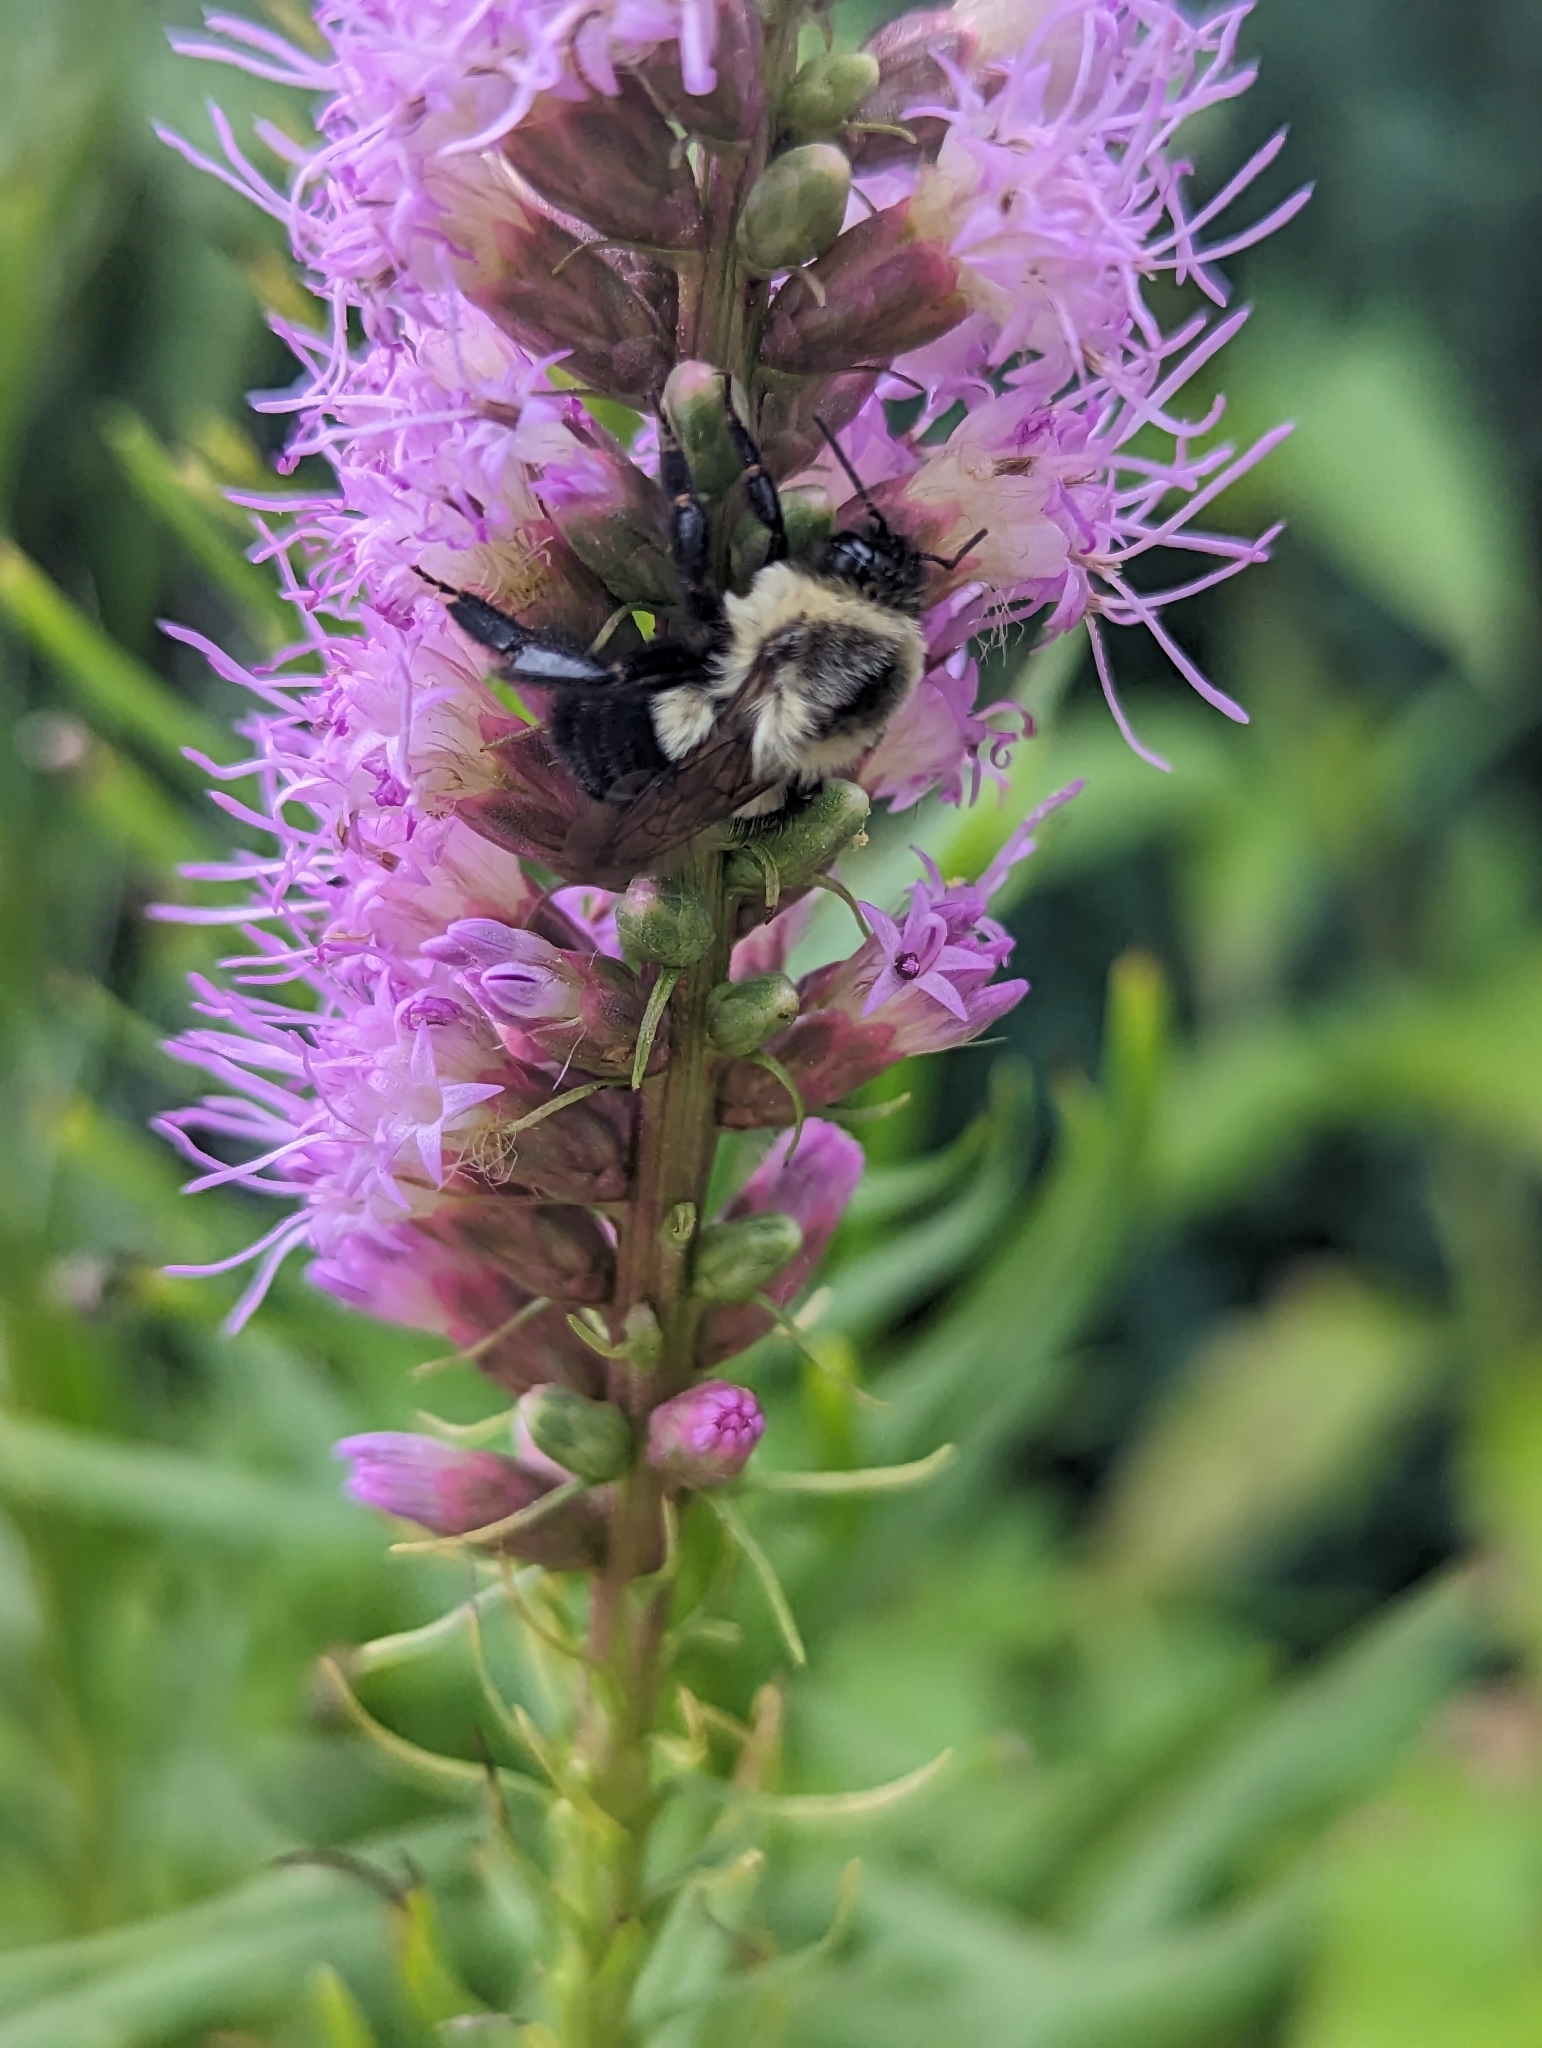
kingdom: Animalia
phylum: Arthropoda
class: Insecta
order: Hymenoptera
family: Apidae
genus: Bombus
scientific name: Bombus impatiens
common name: Common eastern bumble bee
